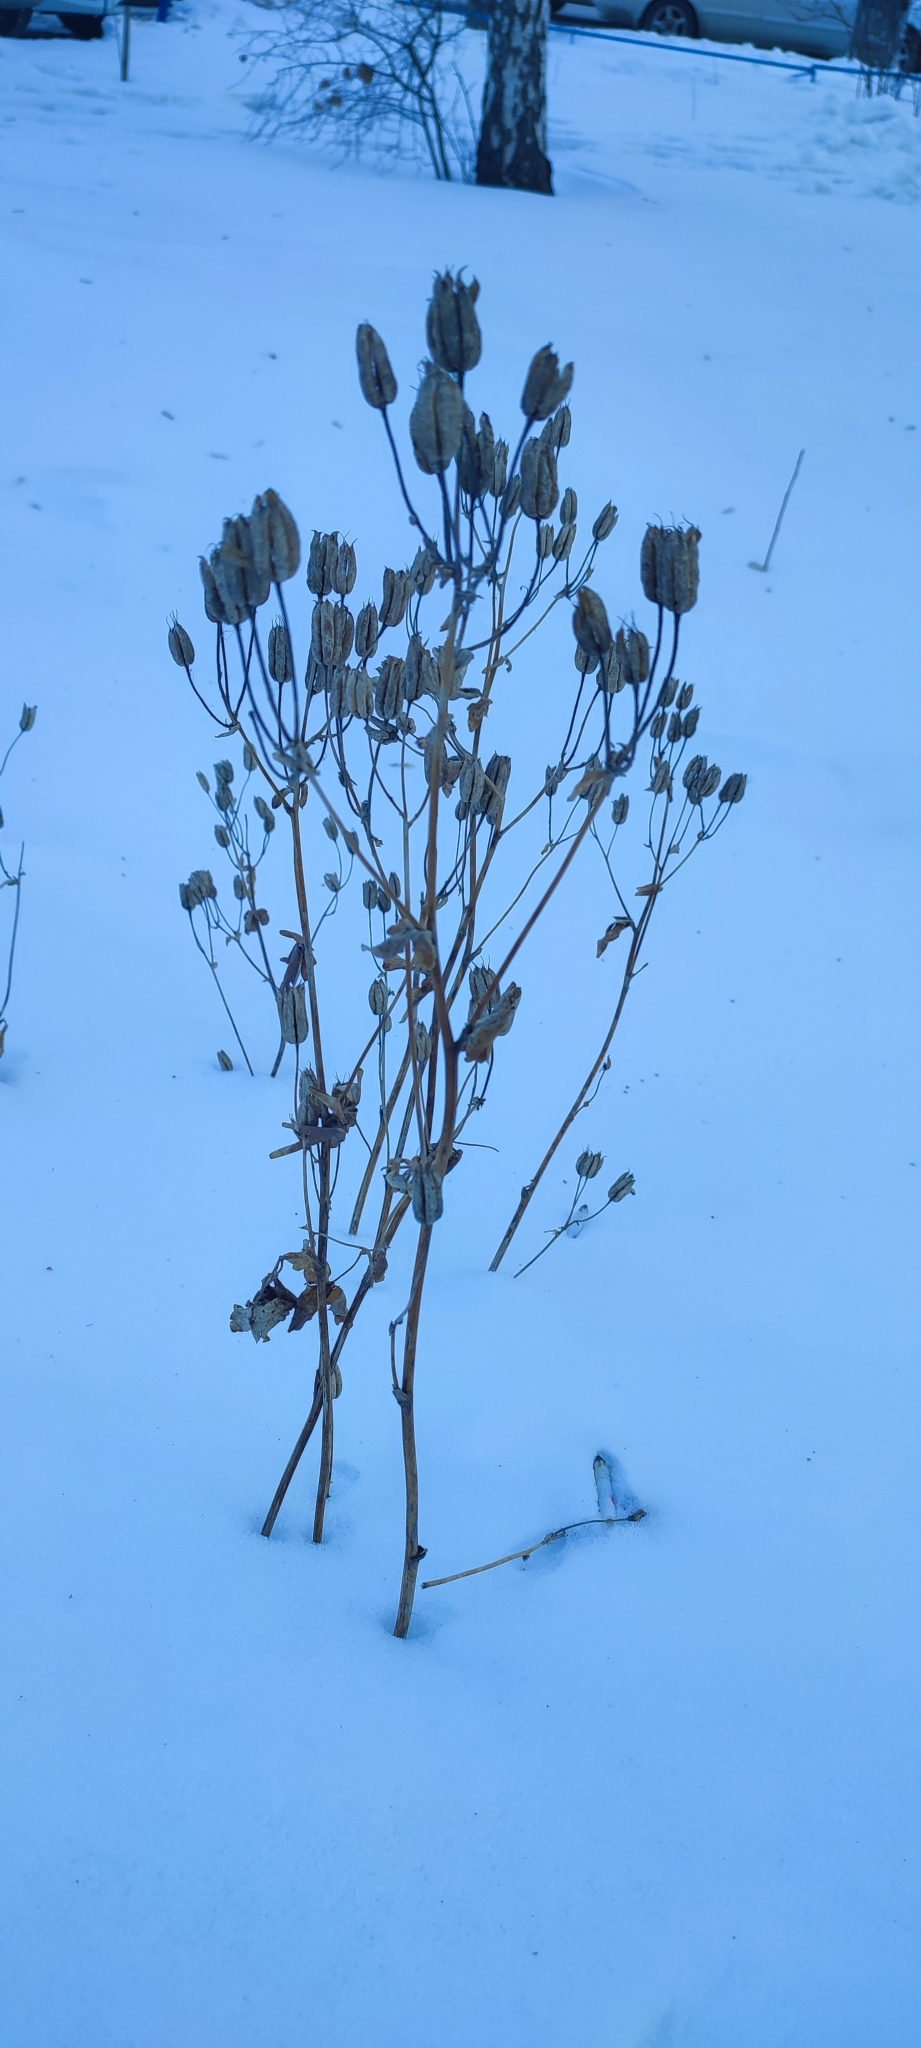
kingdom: Plantae
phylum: Tracheophyta
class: Magnoliopsida
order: Ranunculales
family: Ranunculaceae
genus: Aquilegia
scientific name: Aquilegia vulgaris
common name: Columbine
